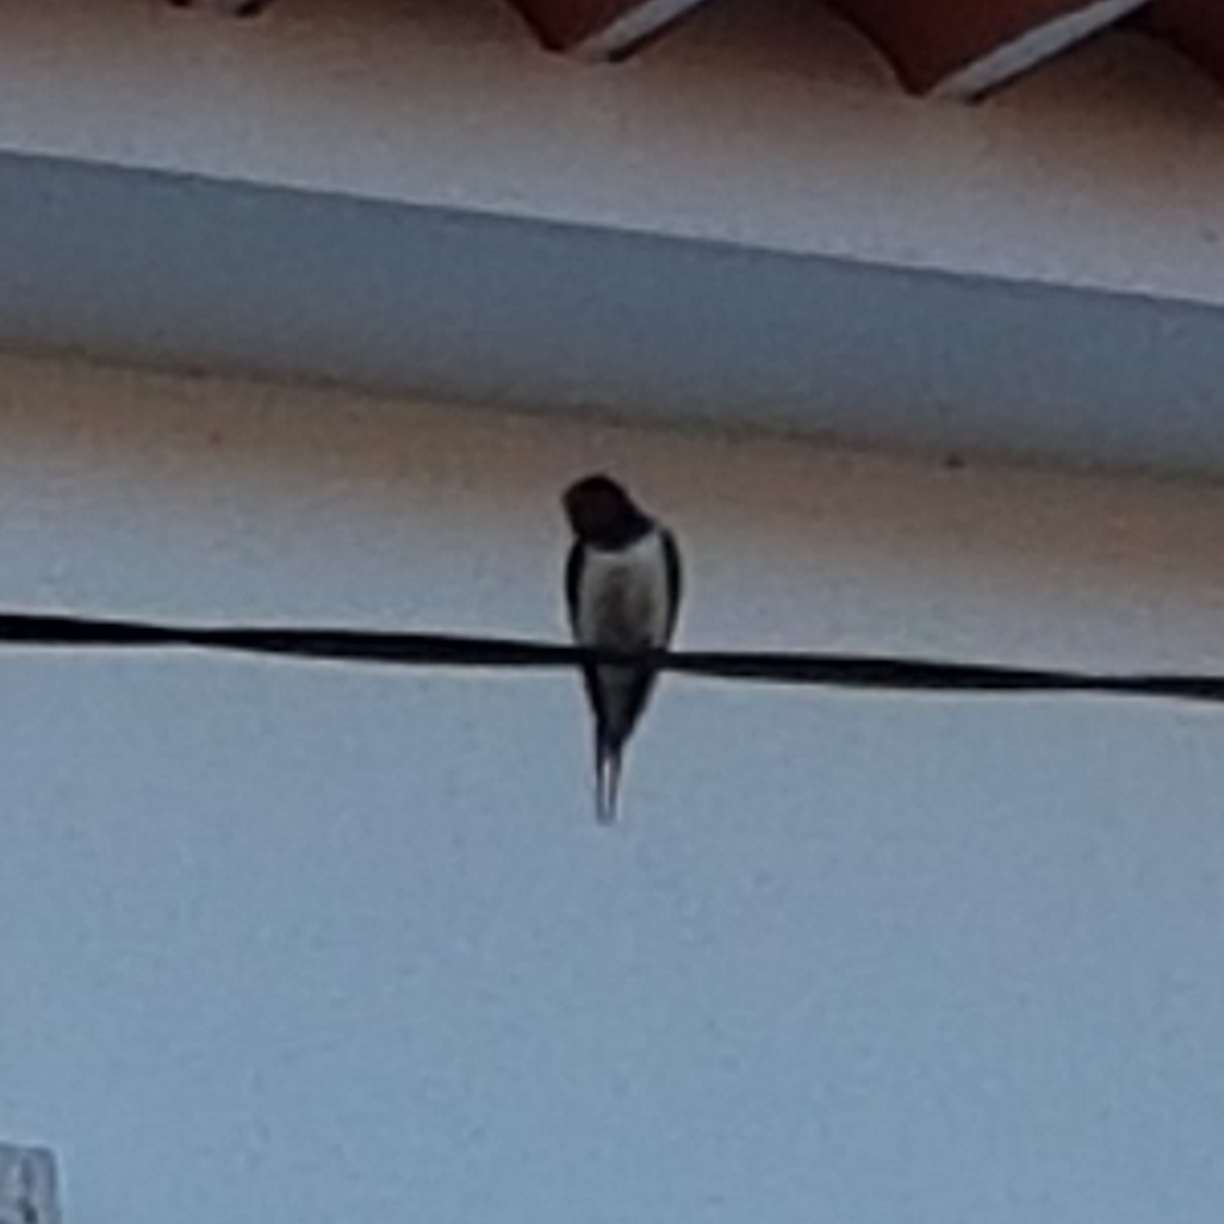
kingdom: Animalia
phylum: Chordata
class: Aves
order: Passeriformes
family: Hirundinidae
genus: Hirundo
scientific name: Hirundo rustica
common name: Barn swallow
